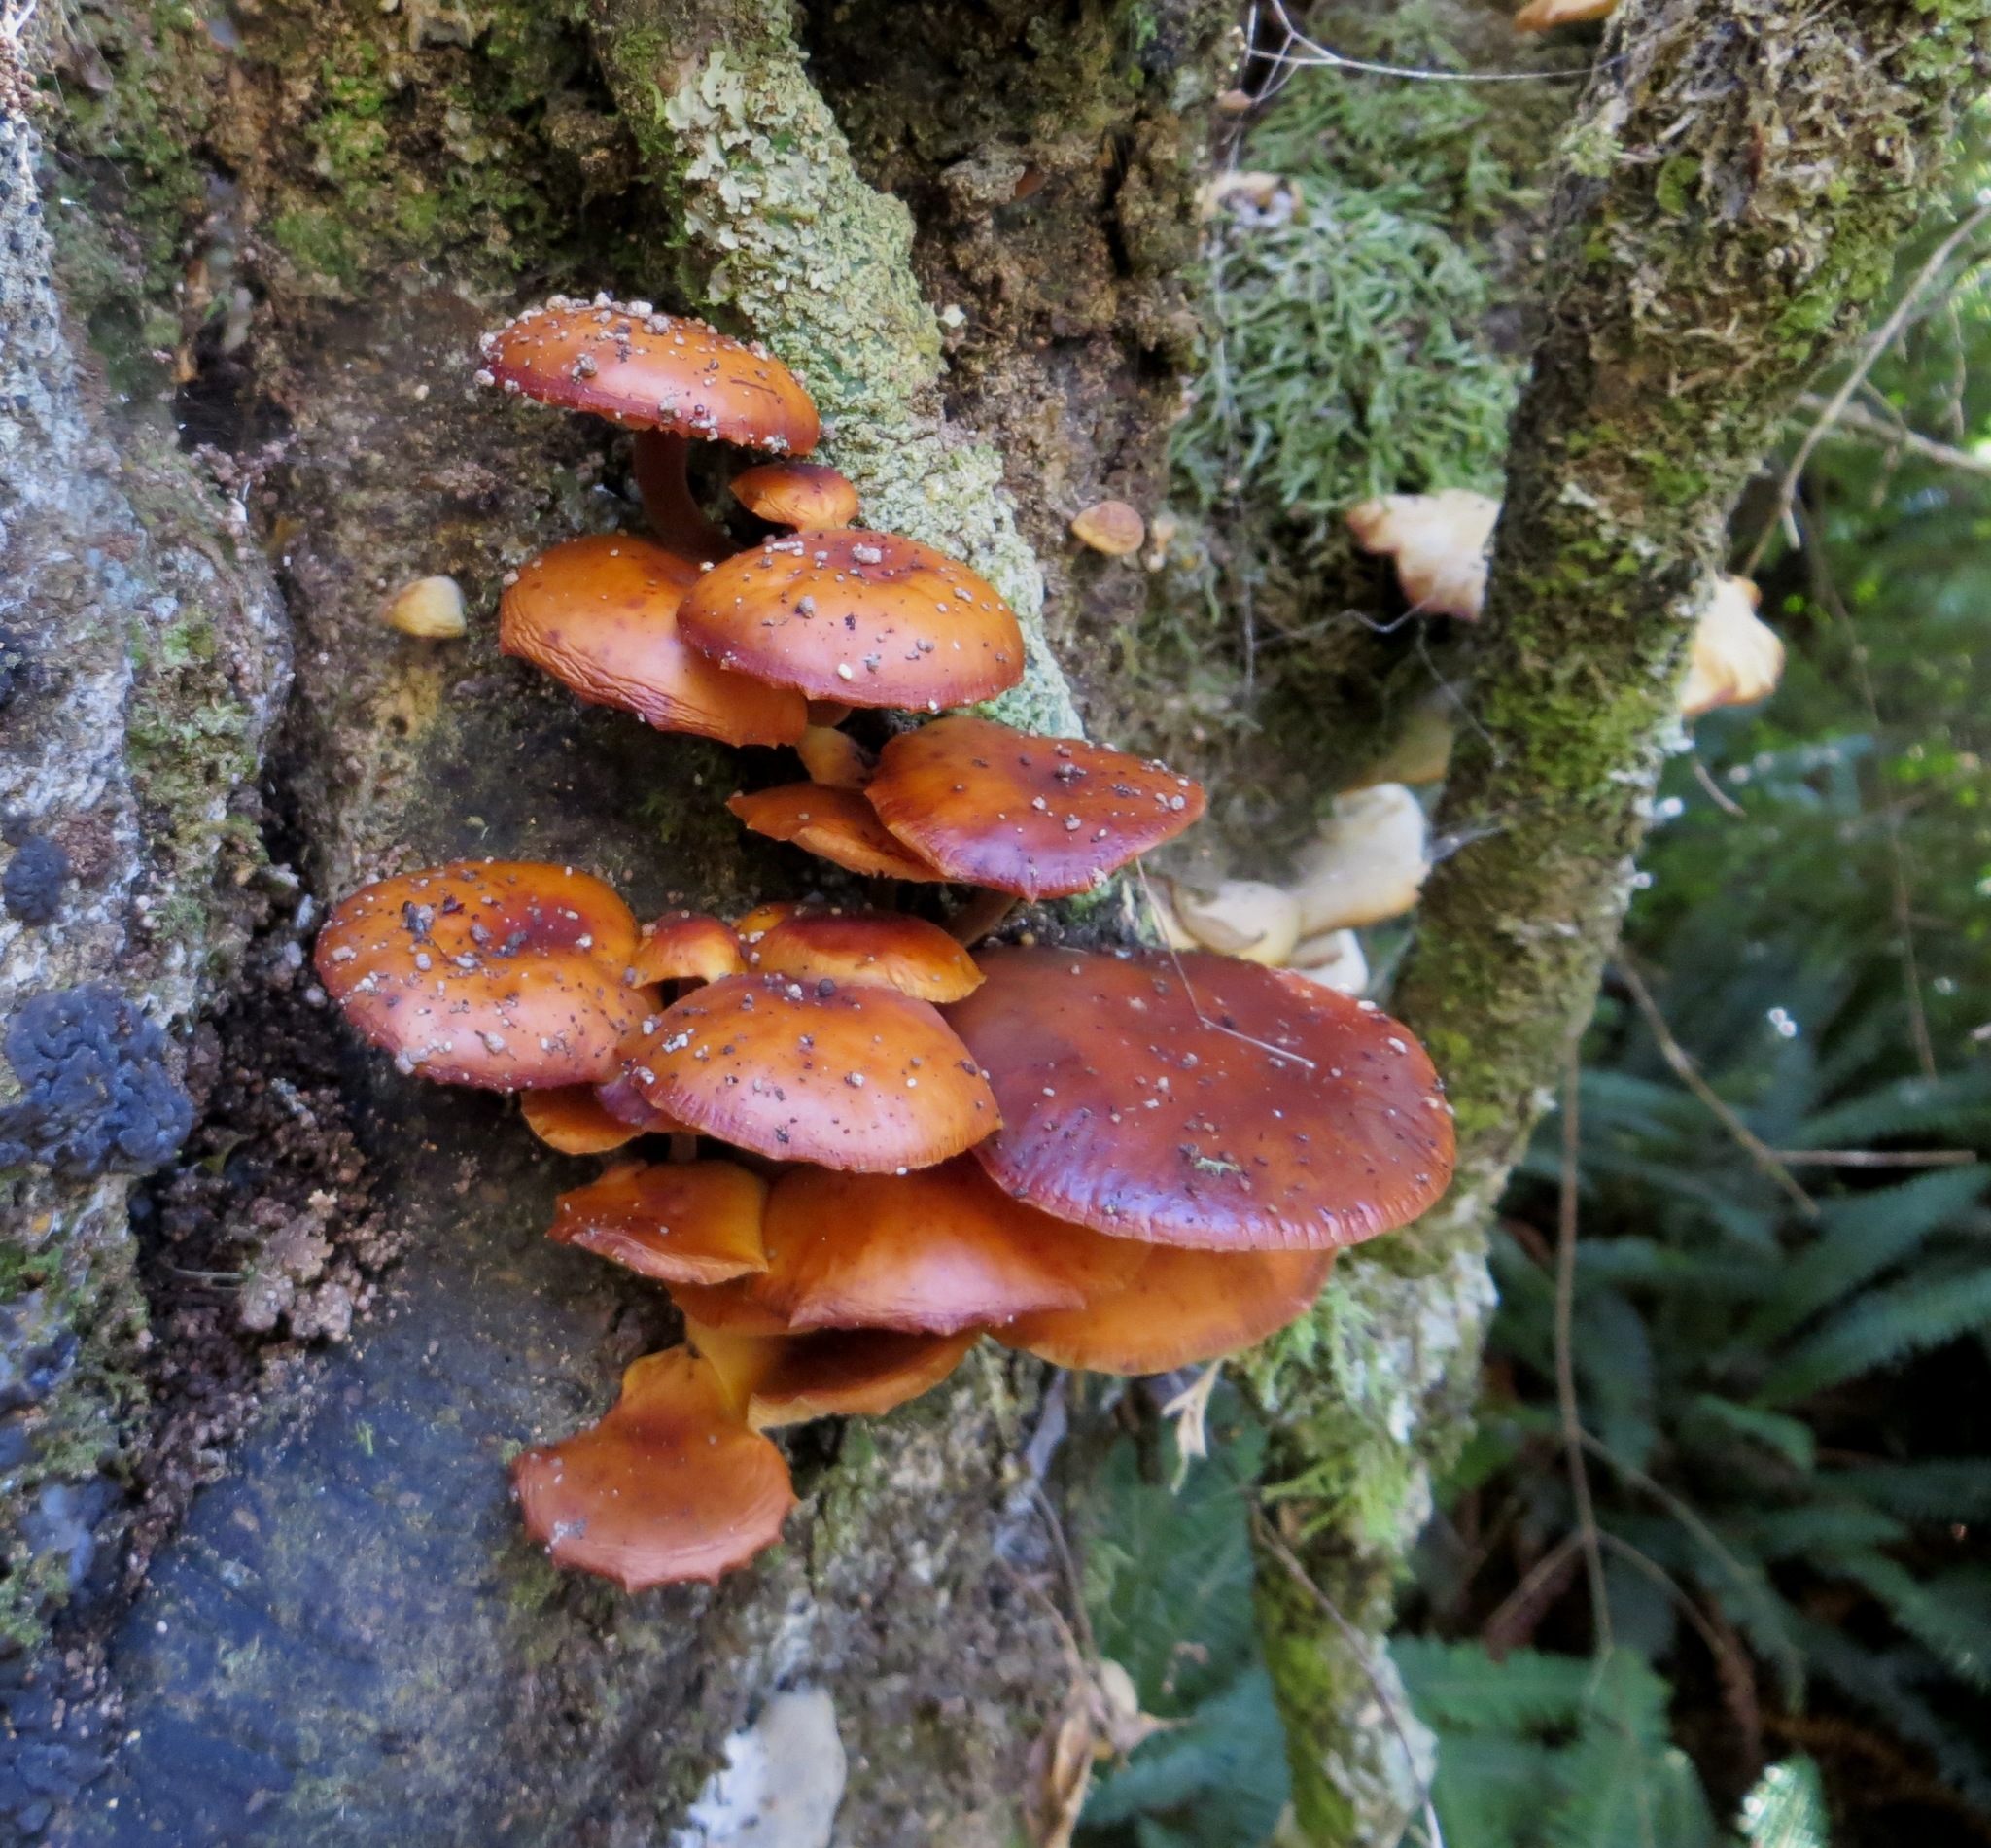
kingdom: Fungi
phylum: Basidiomycota
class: Agaricomycetes
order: Agaricales
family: Physalacriaceae
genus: Flammulina
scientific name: Flammulina velutipes
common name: Velvet shank
